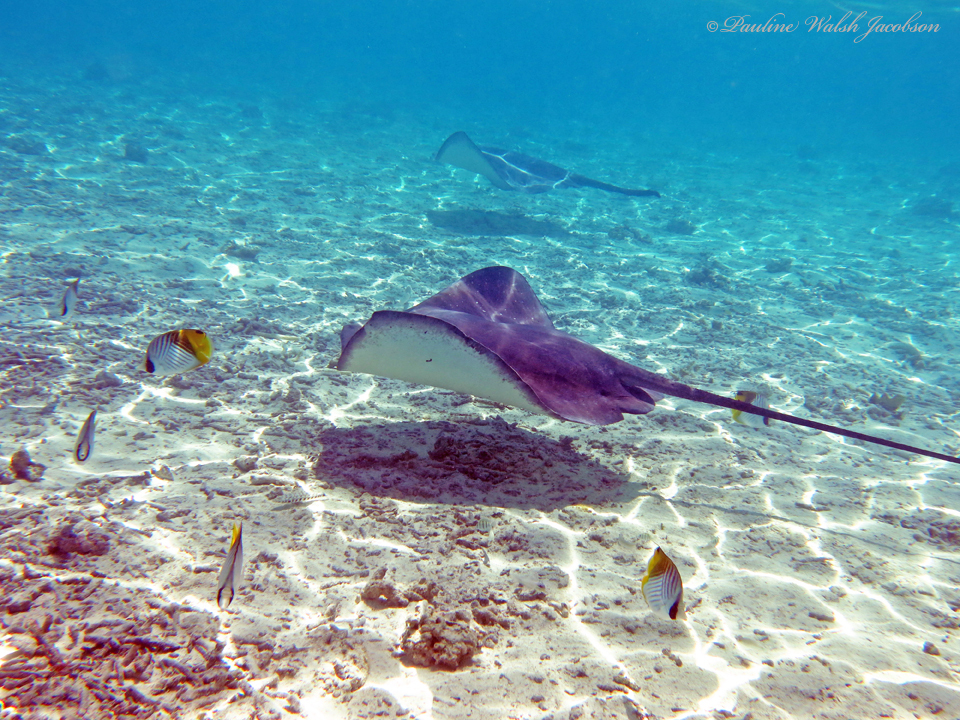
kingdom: Animalia
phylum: Chordata
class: Elasmobranchii
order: Myliobatiformes
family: Dasyatidae
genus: Pateobatis
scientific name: Pateobatis fai
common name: Pink whipray
